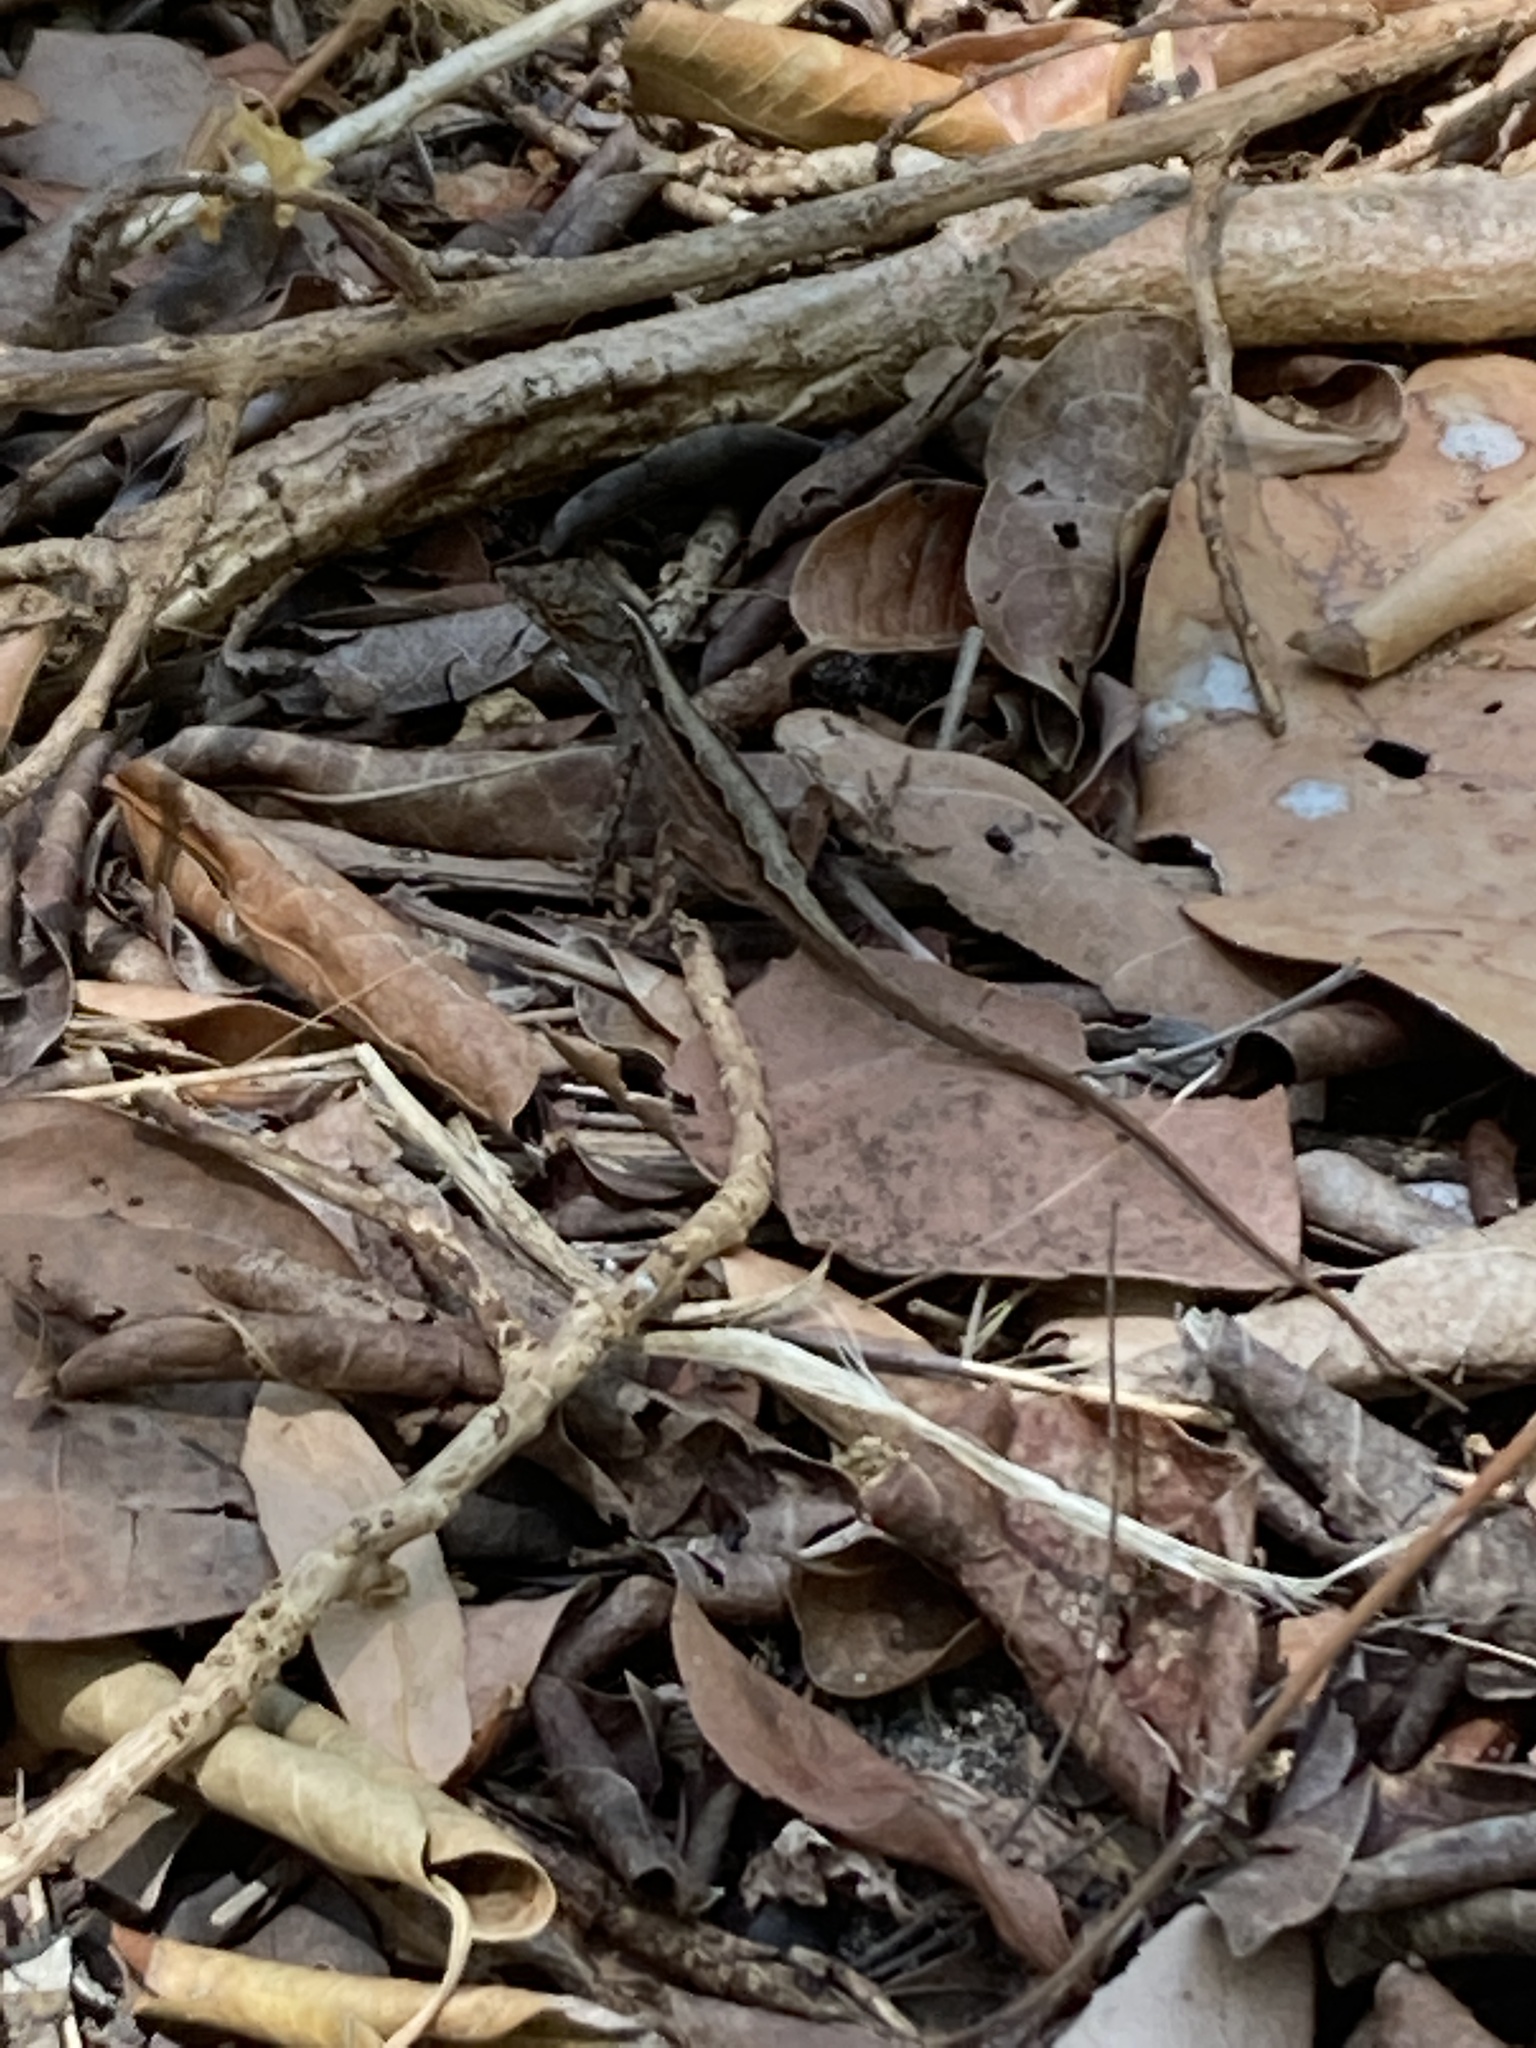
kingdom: Animalia
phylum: Chordata
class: Squamata
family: Dactyloidae
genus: Anolis
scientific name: Anolis sagrei
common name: Brown anole
